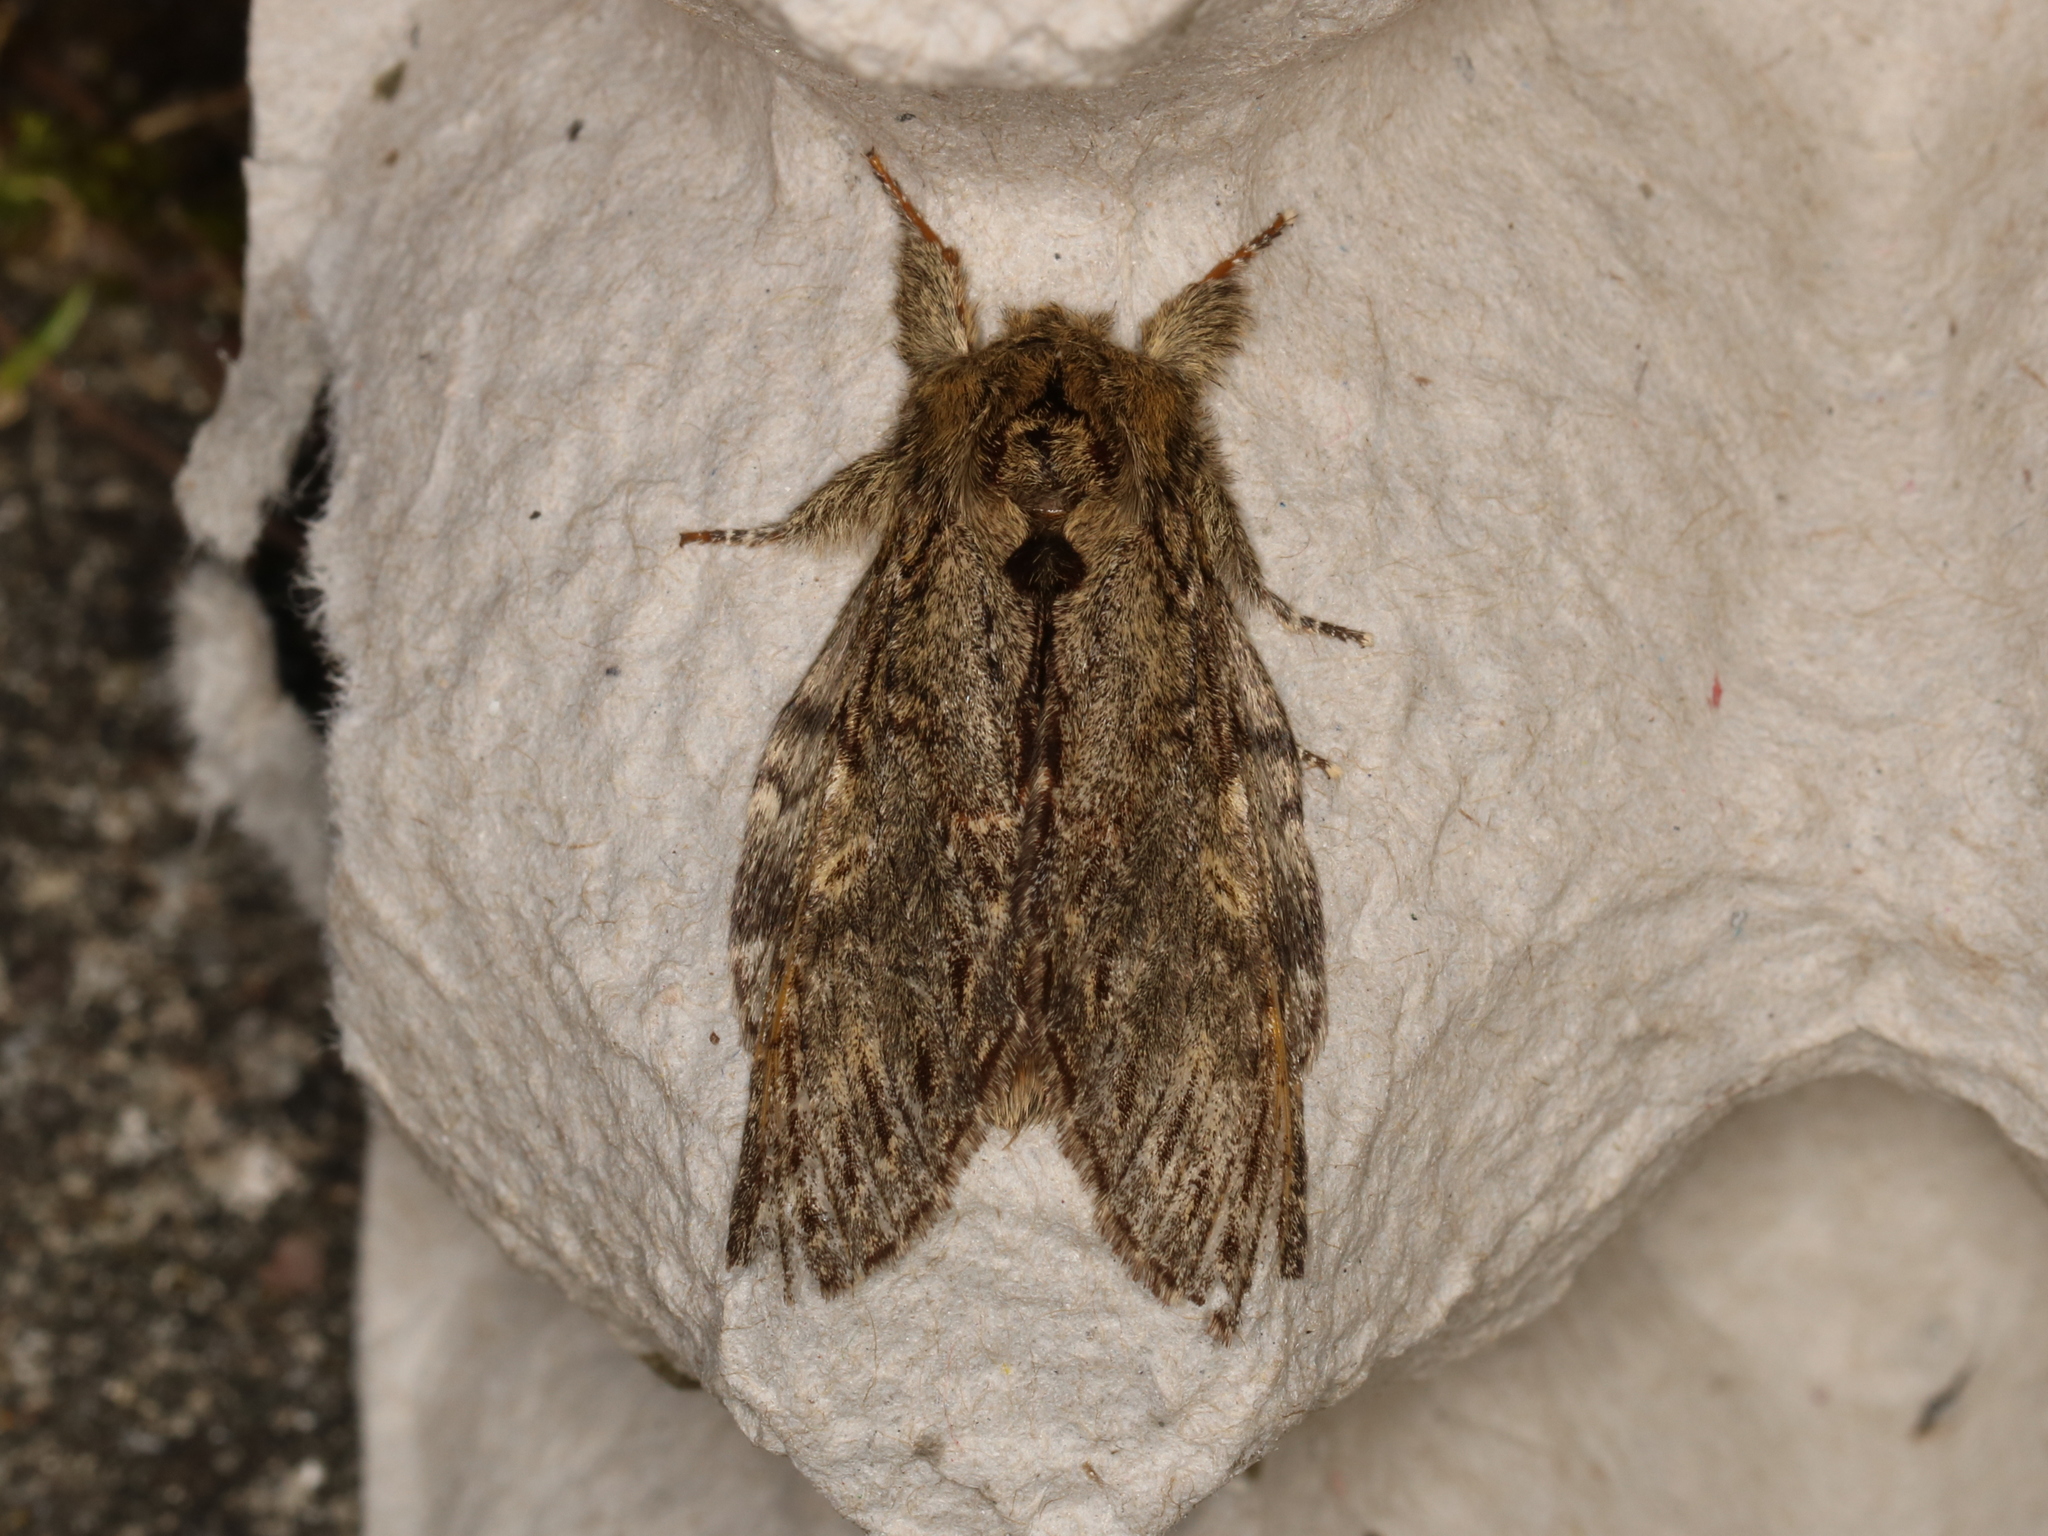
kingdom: Animalia
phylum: Arthropoda
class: Insecta
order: Lepidoptera
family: Notodontidae
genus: Peridea
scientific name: Peridea anceps
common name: Great prominent
